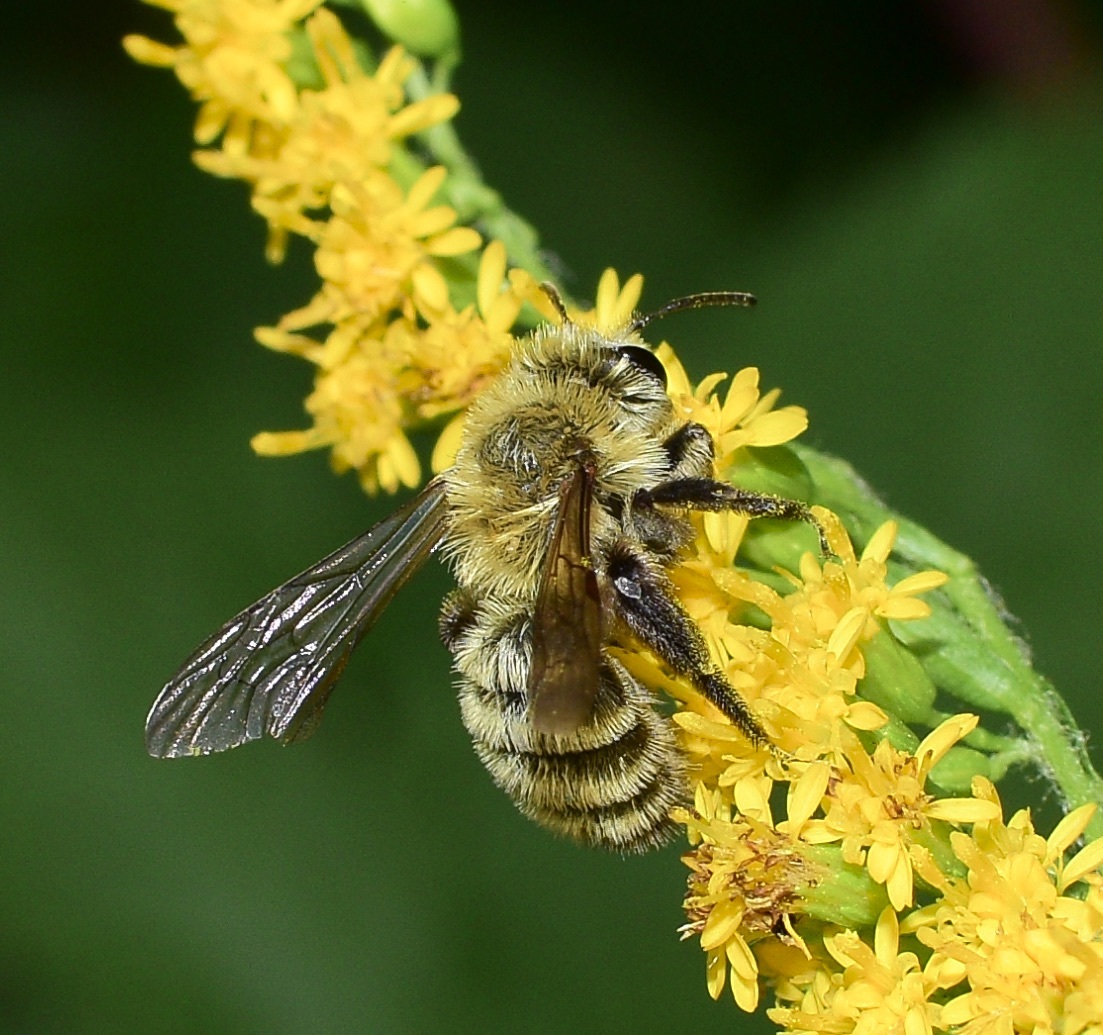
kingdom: Animalia
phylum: Arthropoda
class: Insecta
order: Hymenoptera
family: Andrenidae
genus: Andrena
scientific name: Andrena hirticincta
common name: Hairy-banded mining bee
